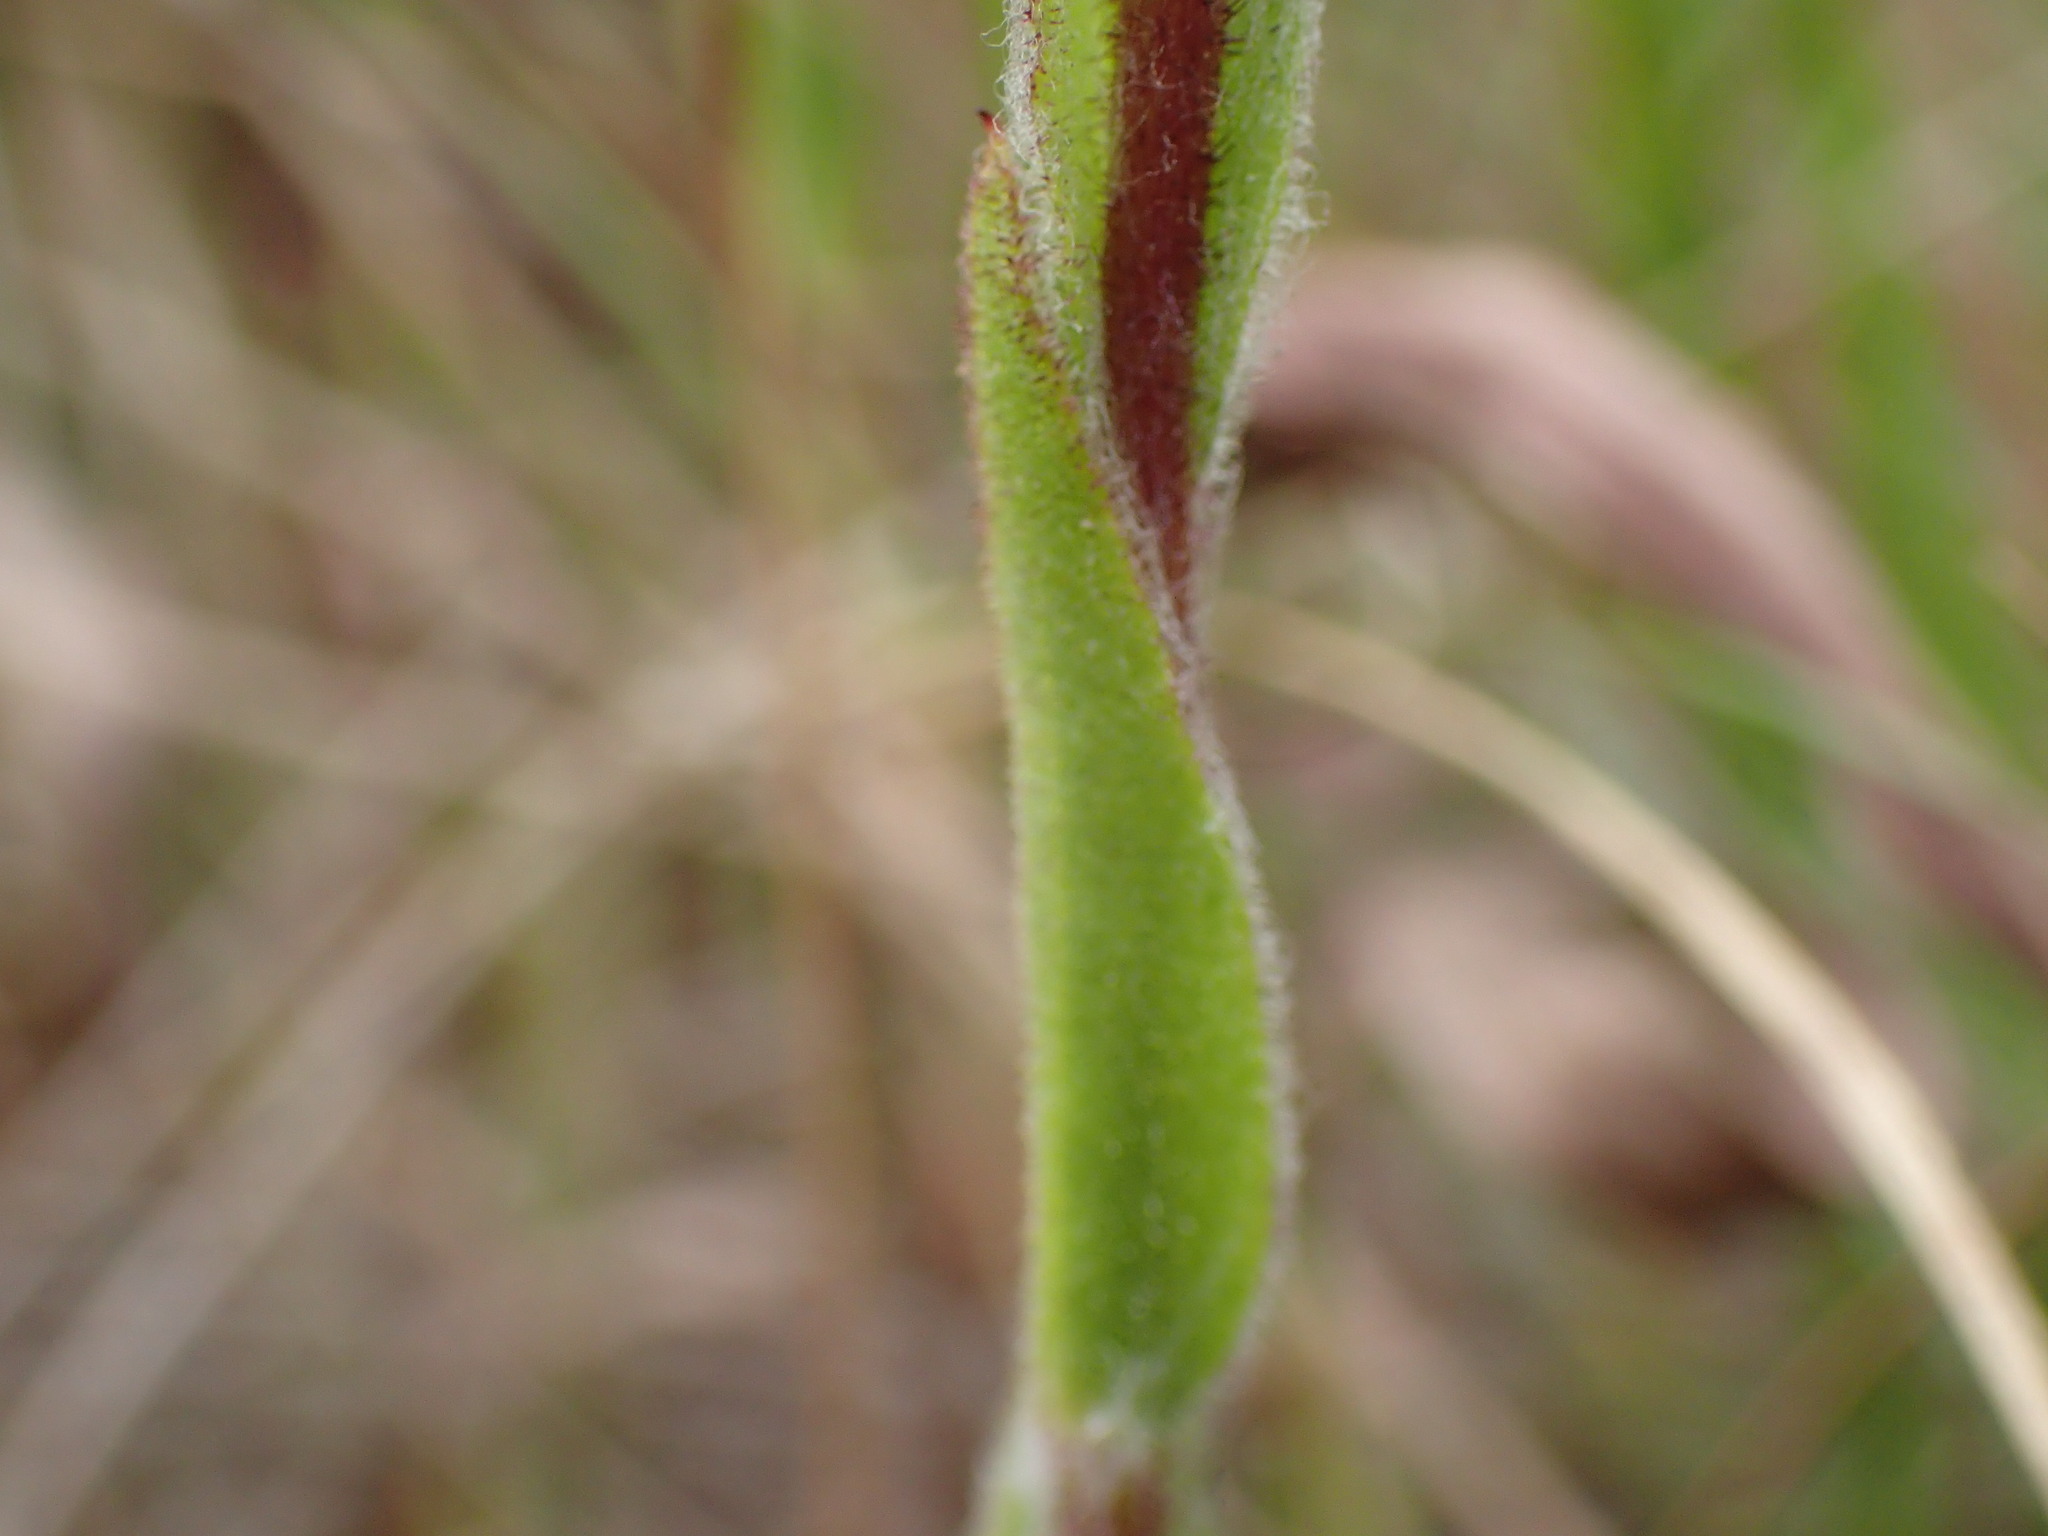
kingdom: Plantae
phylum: Tracheophyta
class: Magnoliopsida
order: Asterales
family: Asteraceae
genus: Helichrysum
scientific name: Helichrysum adenocarpum
